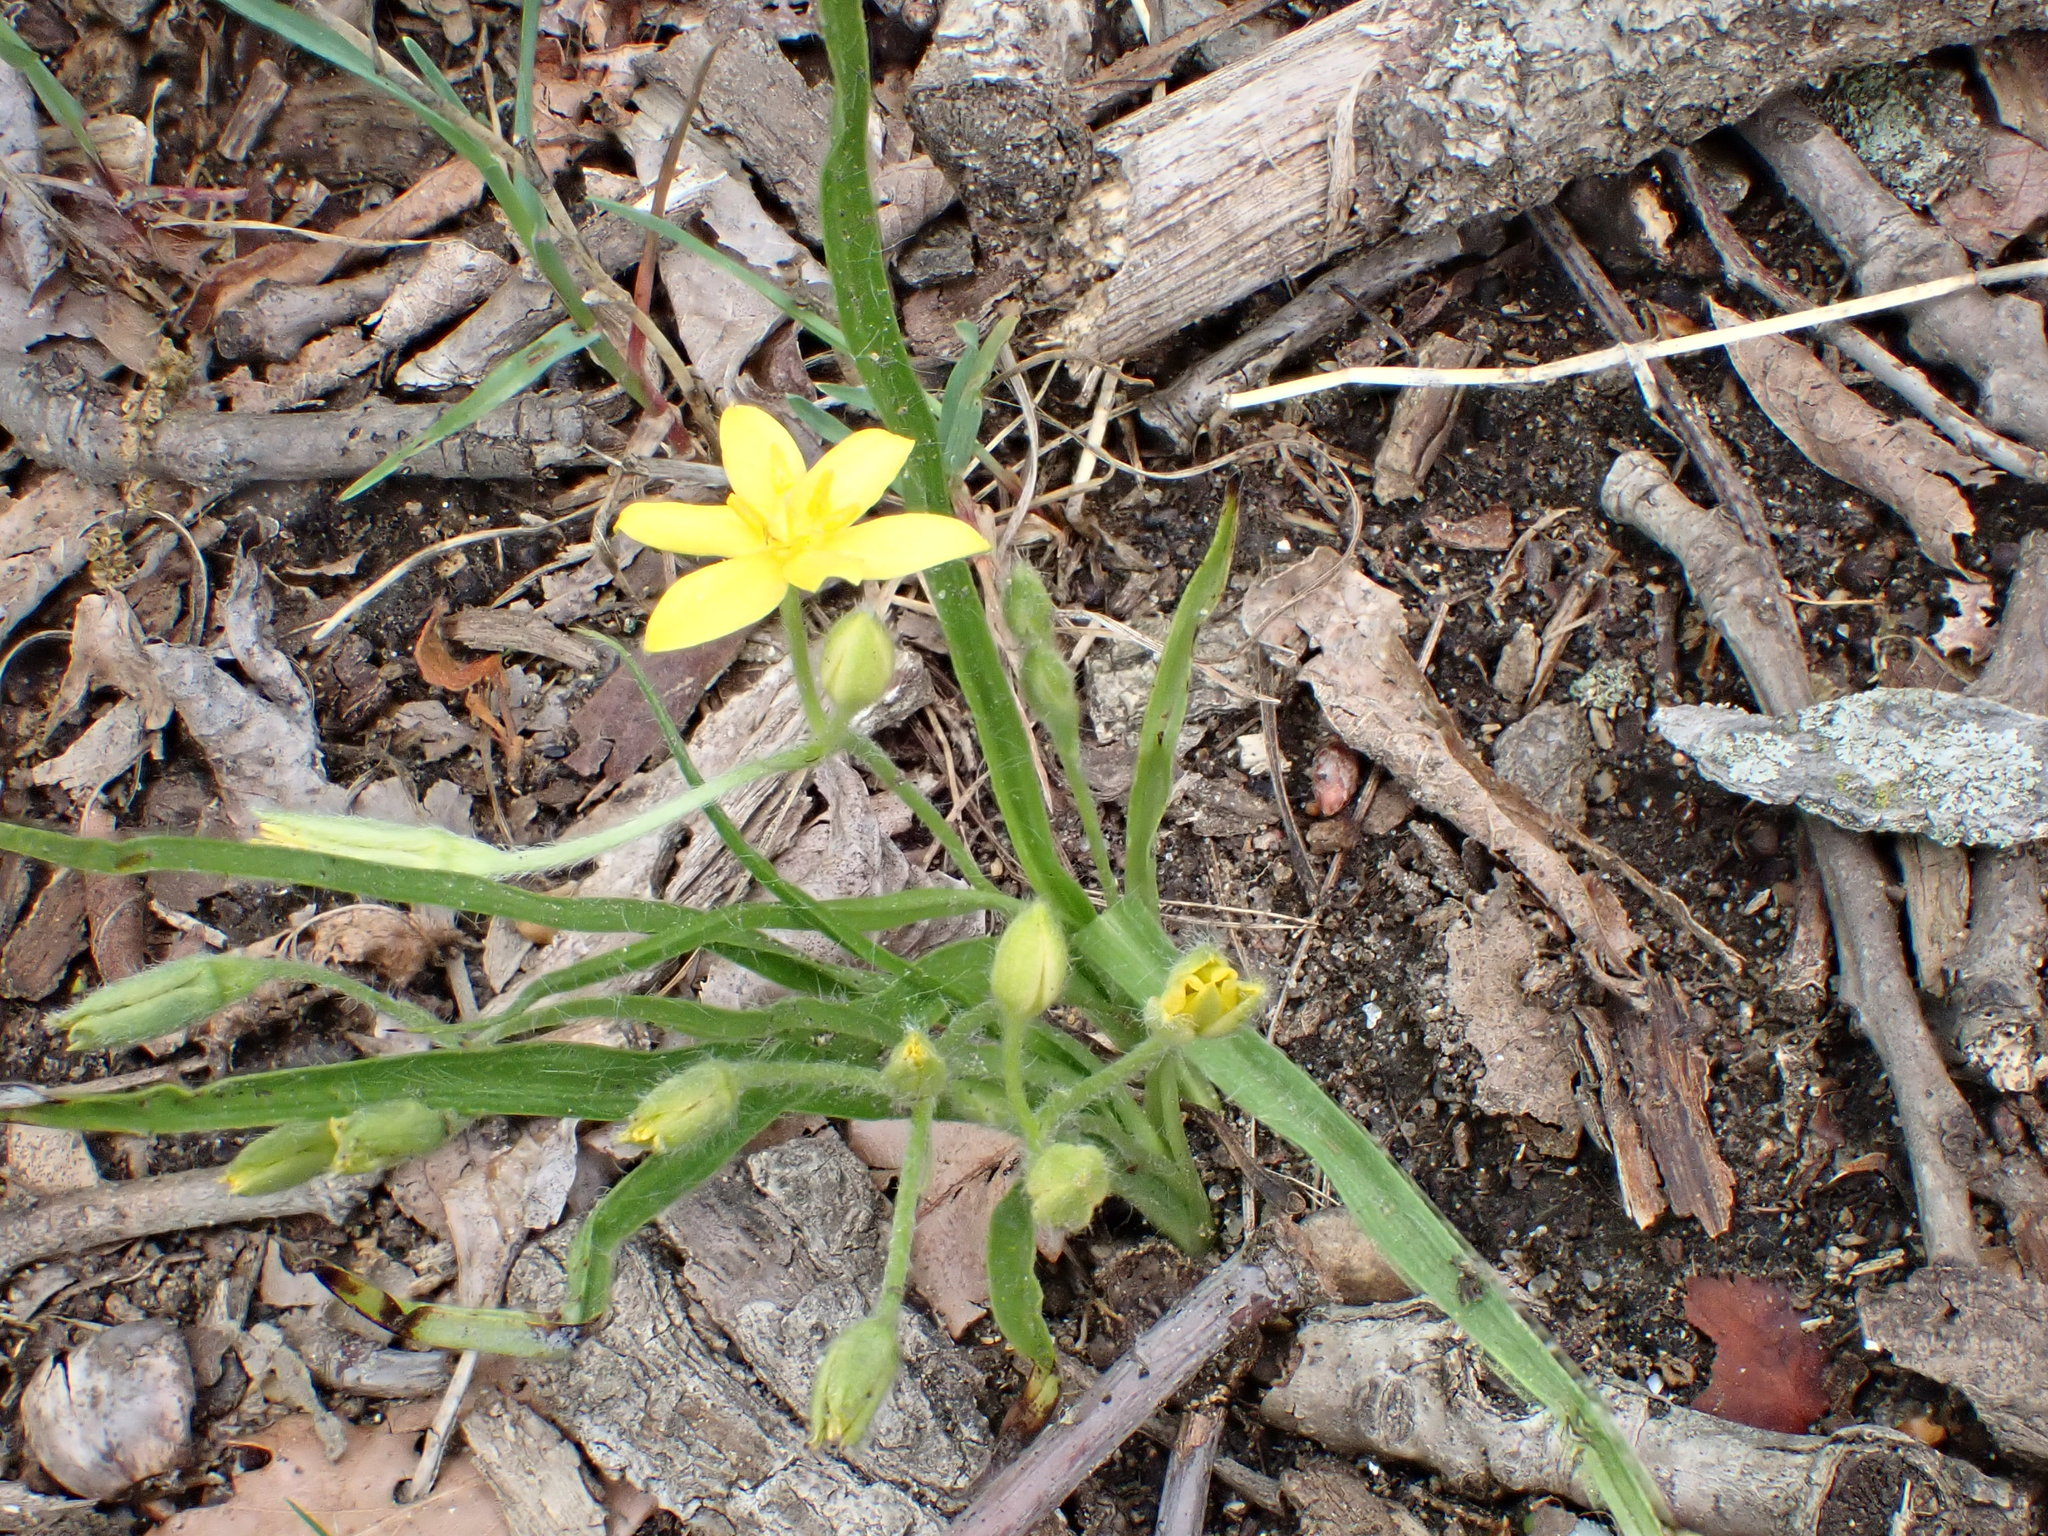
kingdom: Plantae
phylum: Tracheophyta
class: Liliopsida
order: Asparagales
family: Hypoxidaceae
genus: Hypoxis
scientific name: Hypoxis hirsuta
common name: Common goldstar
